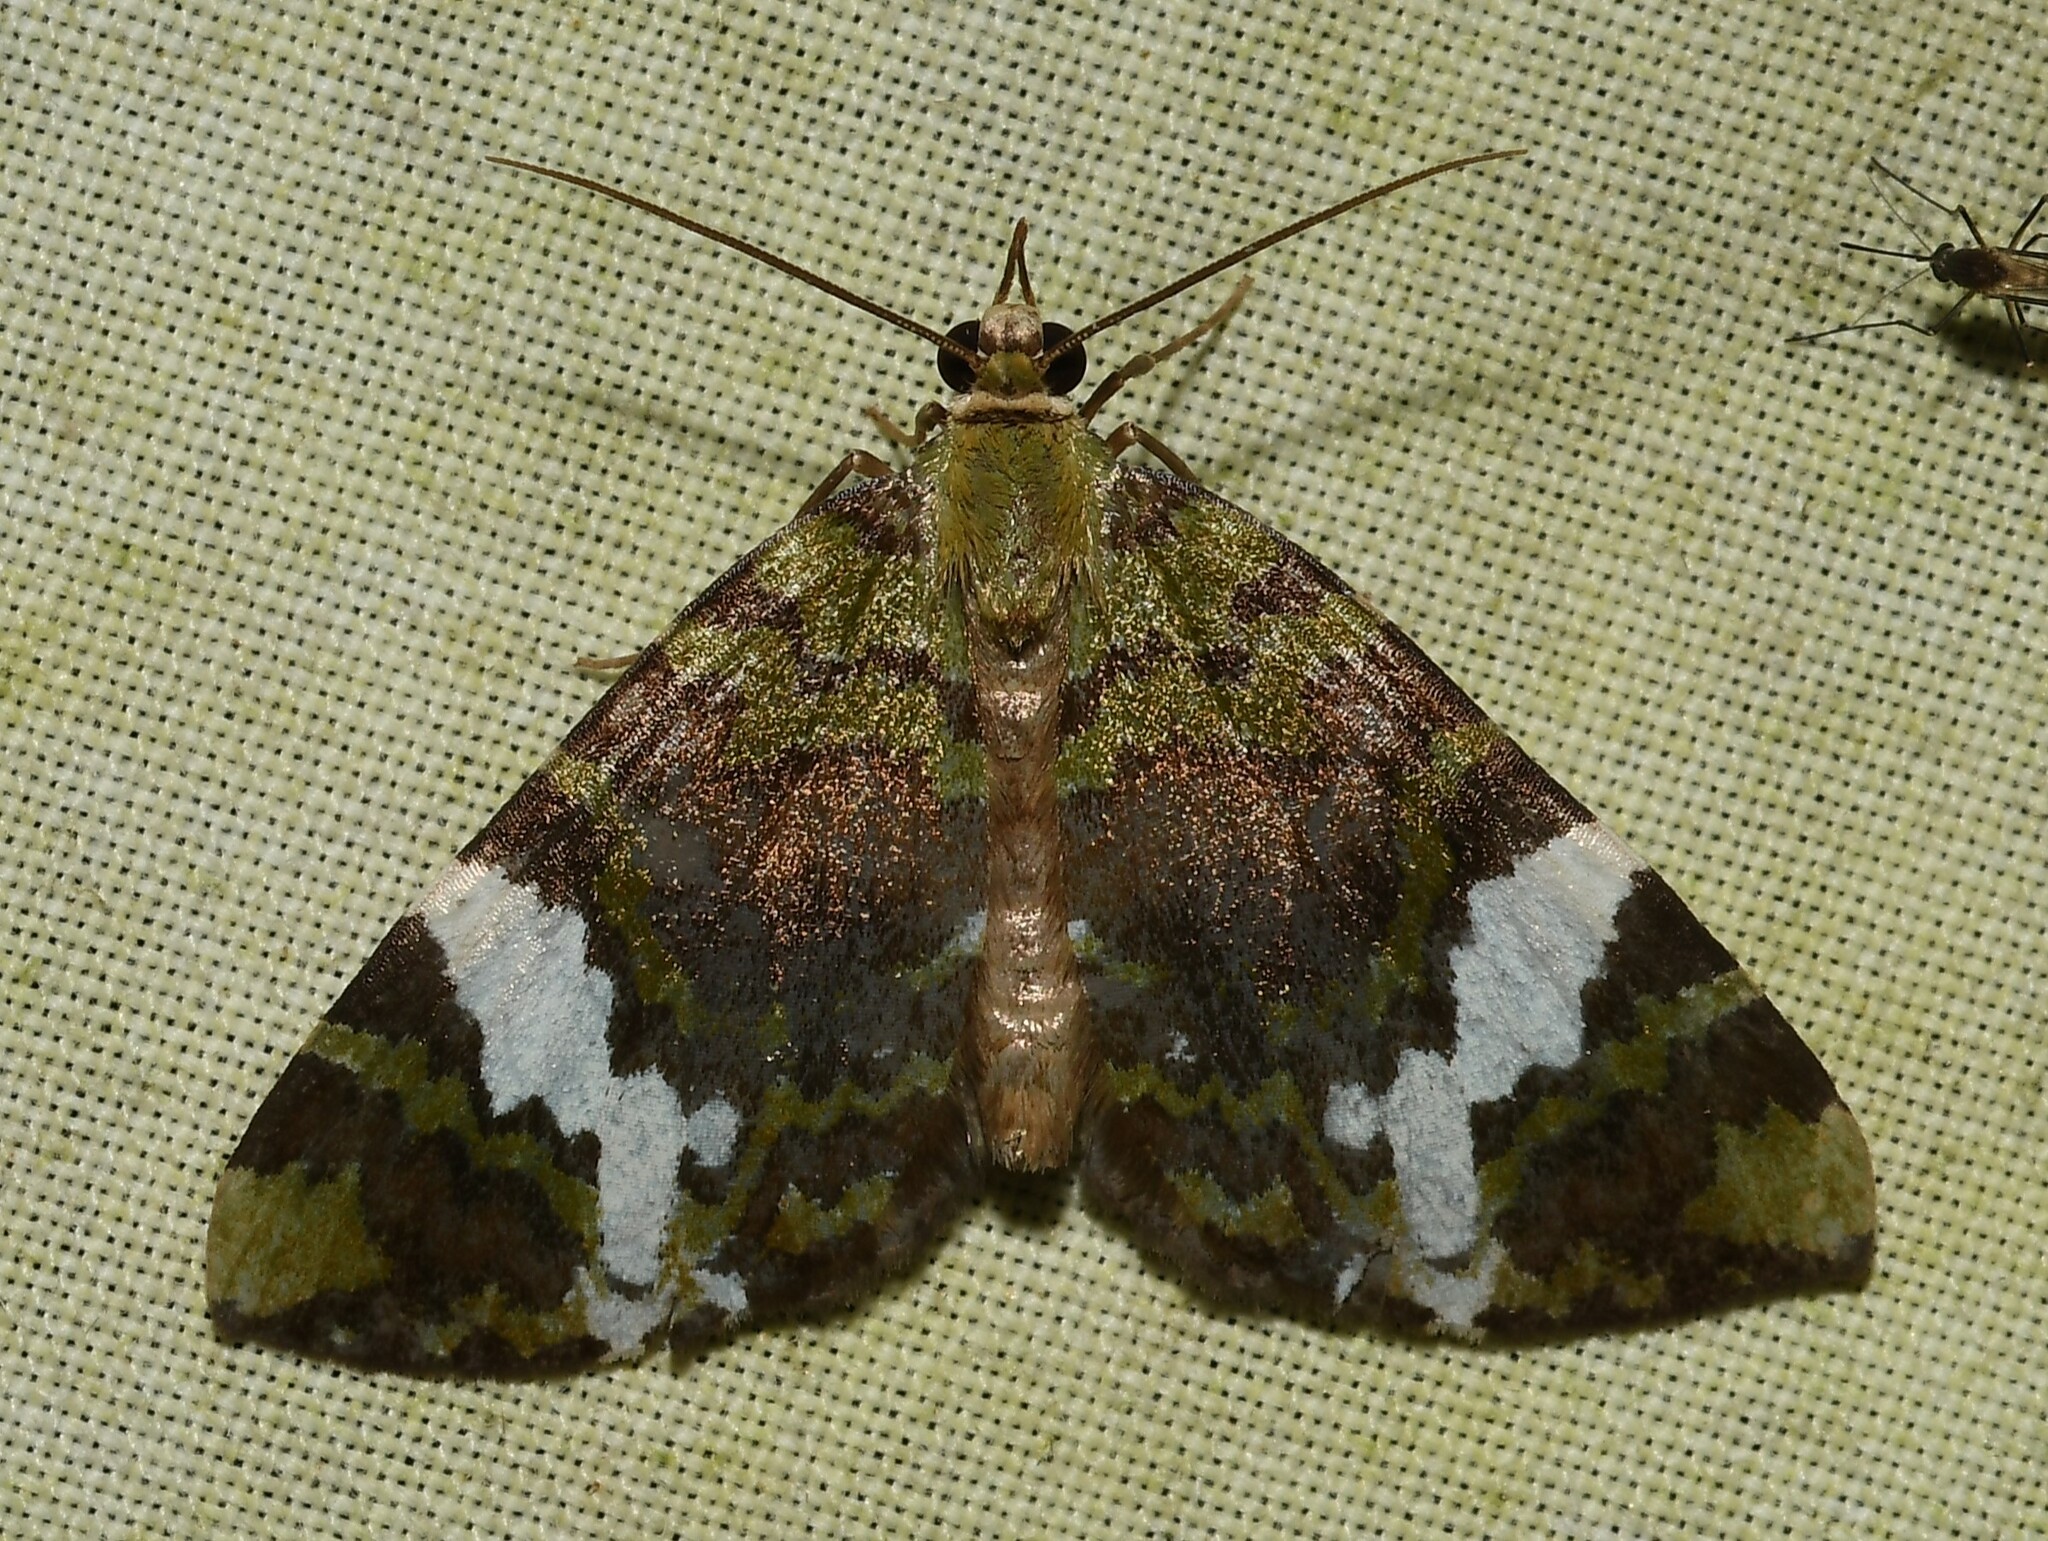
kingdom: Animalia
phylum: Arthropoda
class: Insecta
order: Lepidoptera
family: Geometridae
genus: Hydriomena
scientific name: Hydriomena polyphonta
